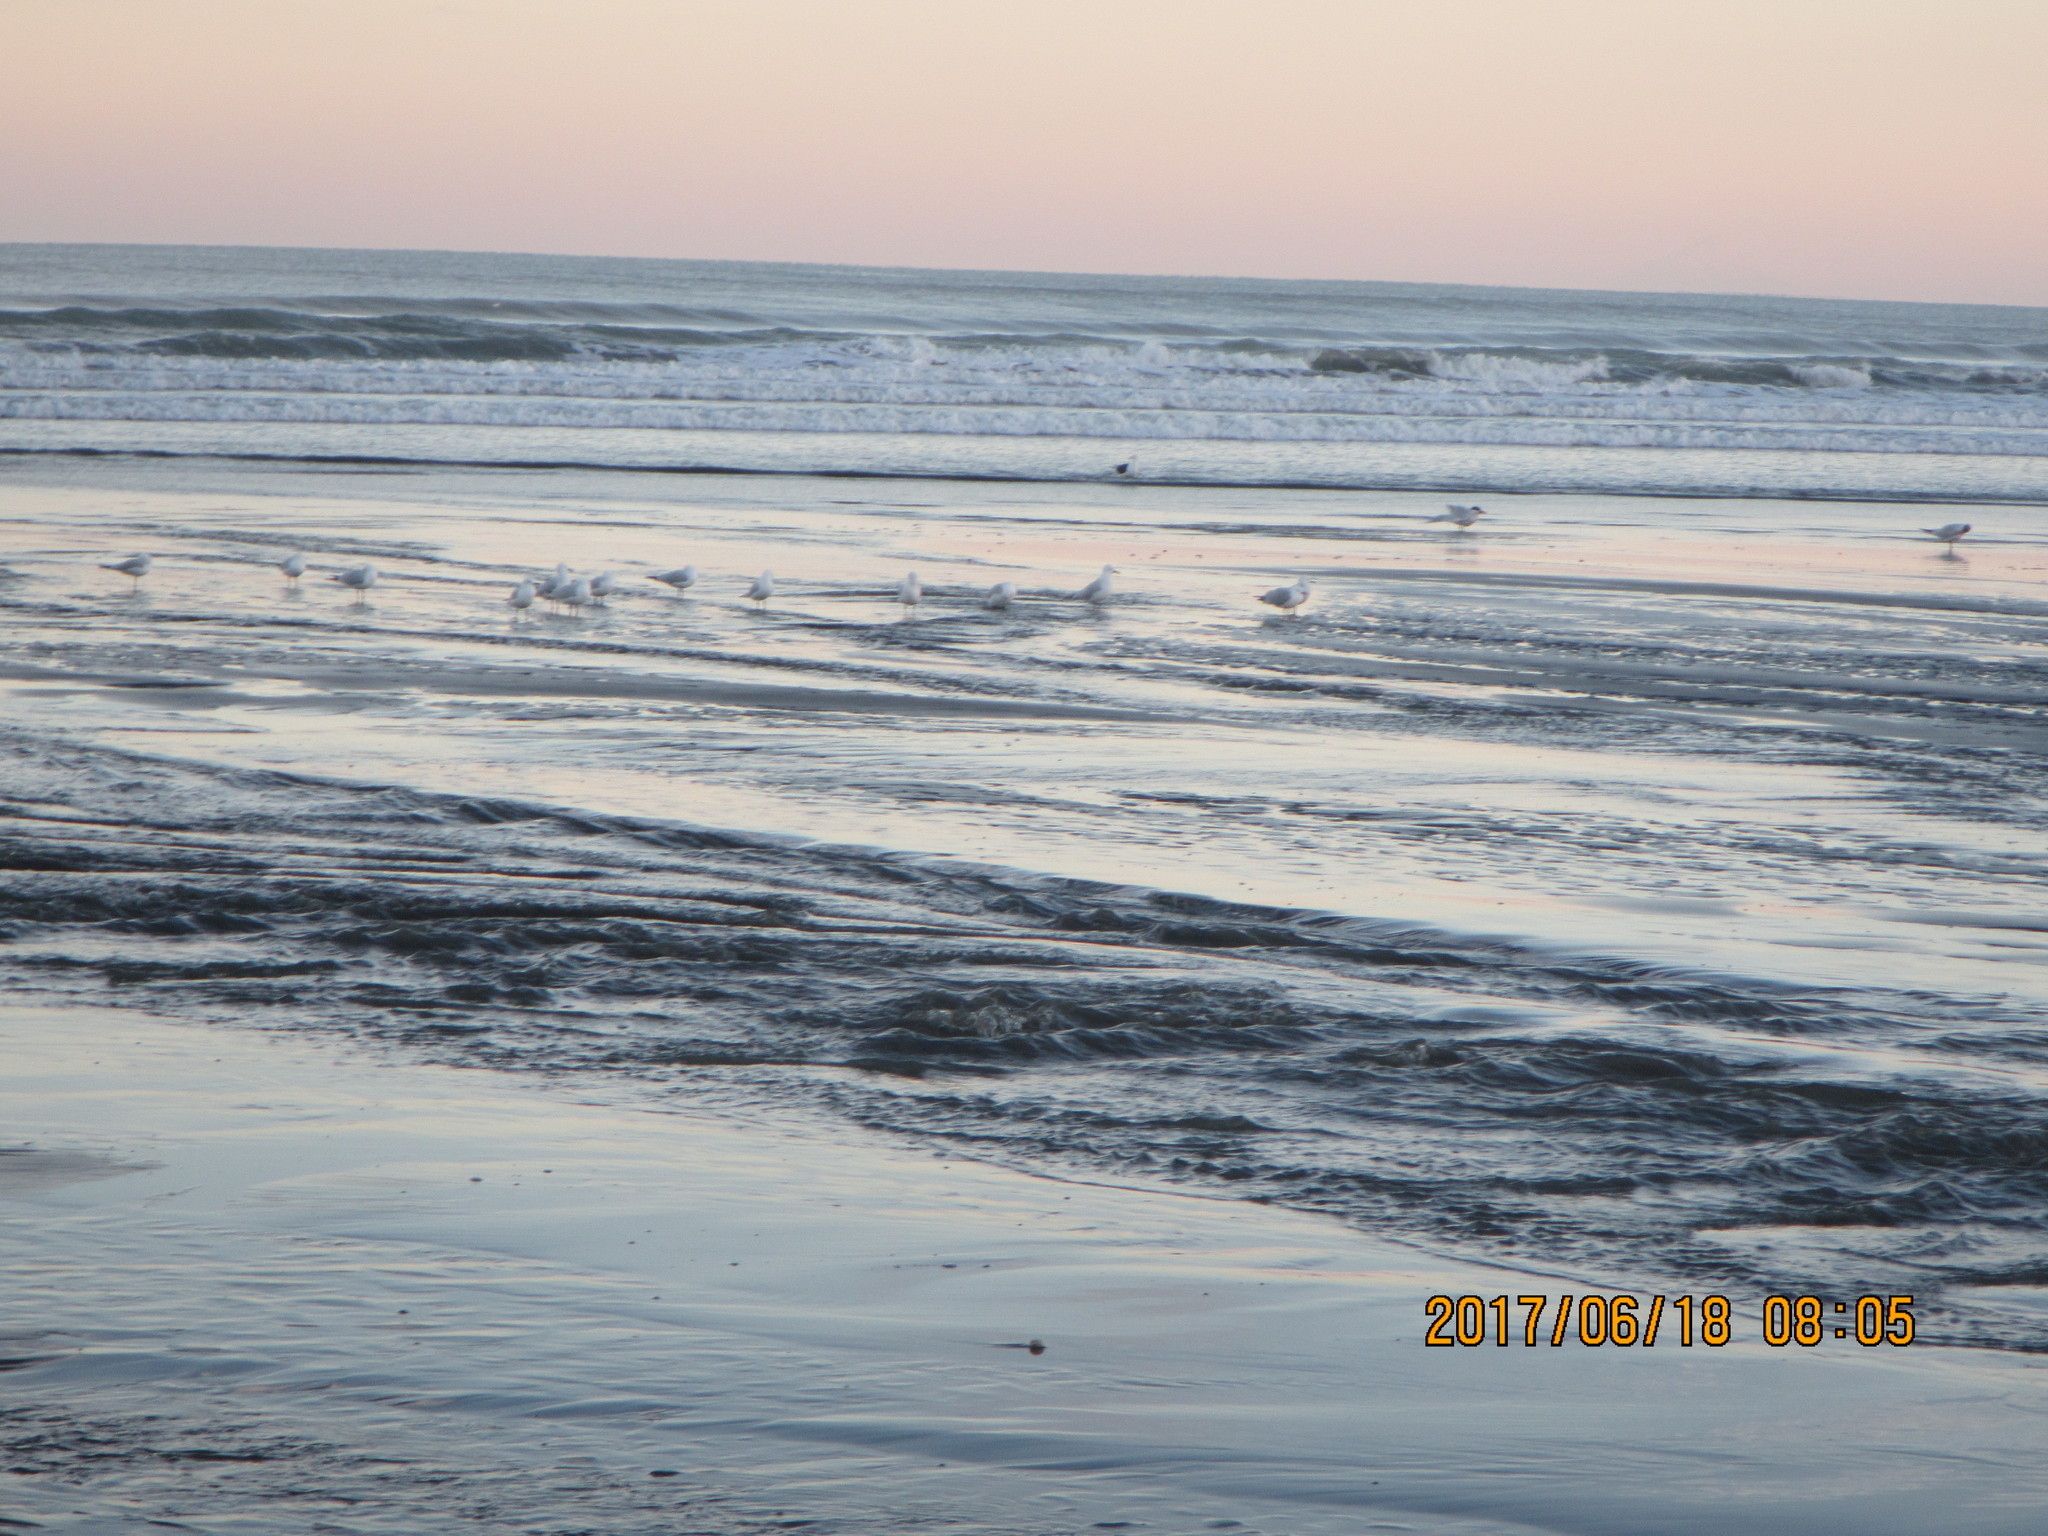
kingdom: Animalia
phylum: Chordata
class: Aves
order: Charadriiformes
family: Laridae
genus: Hydroprogne
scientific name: Hydroprogne caspia
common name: Caspian tern
